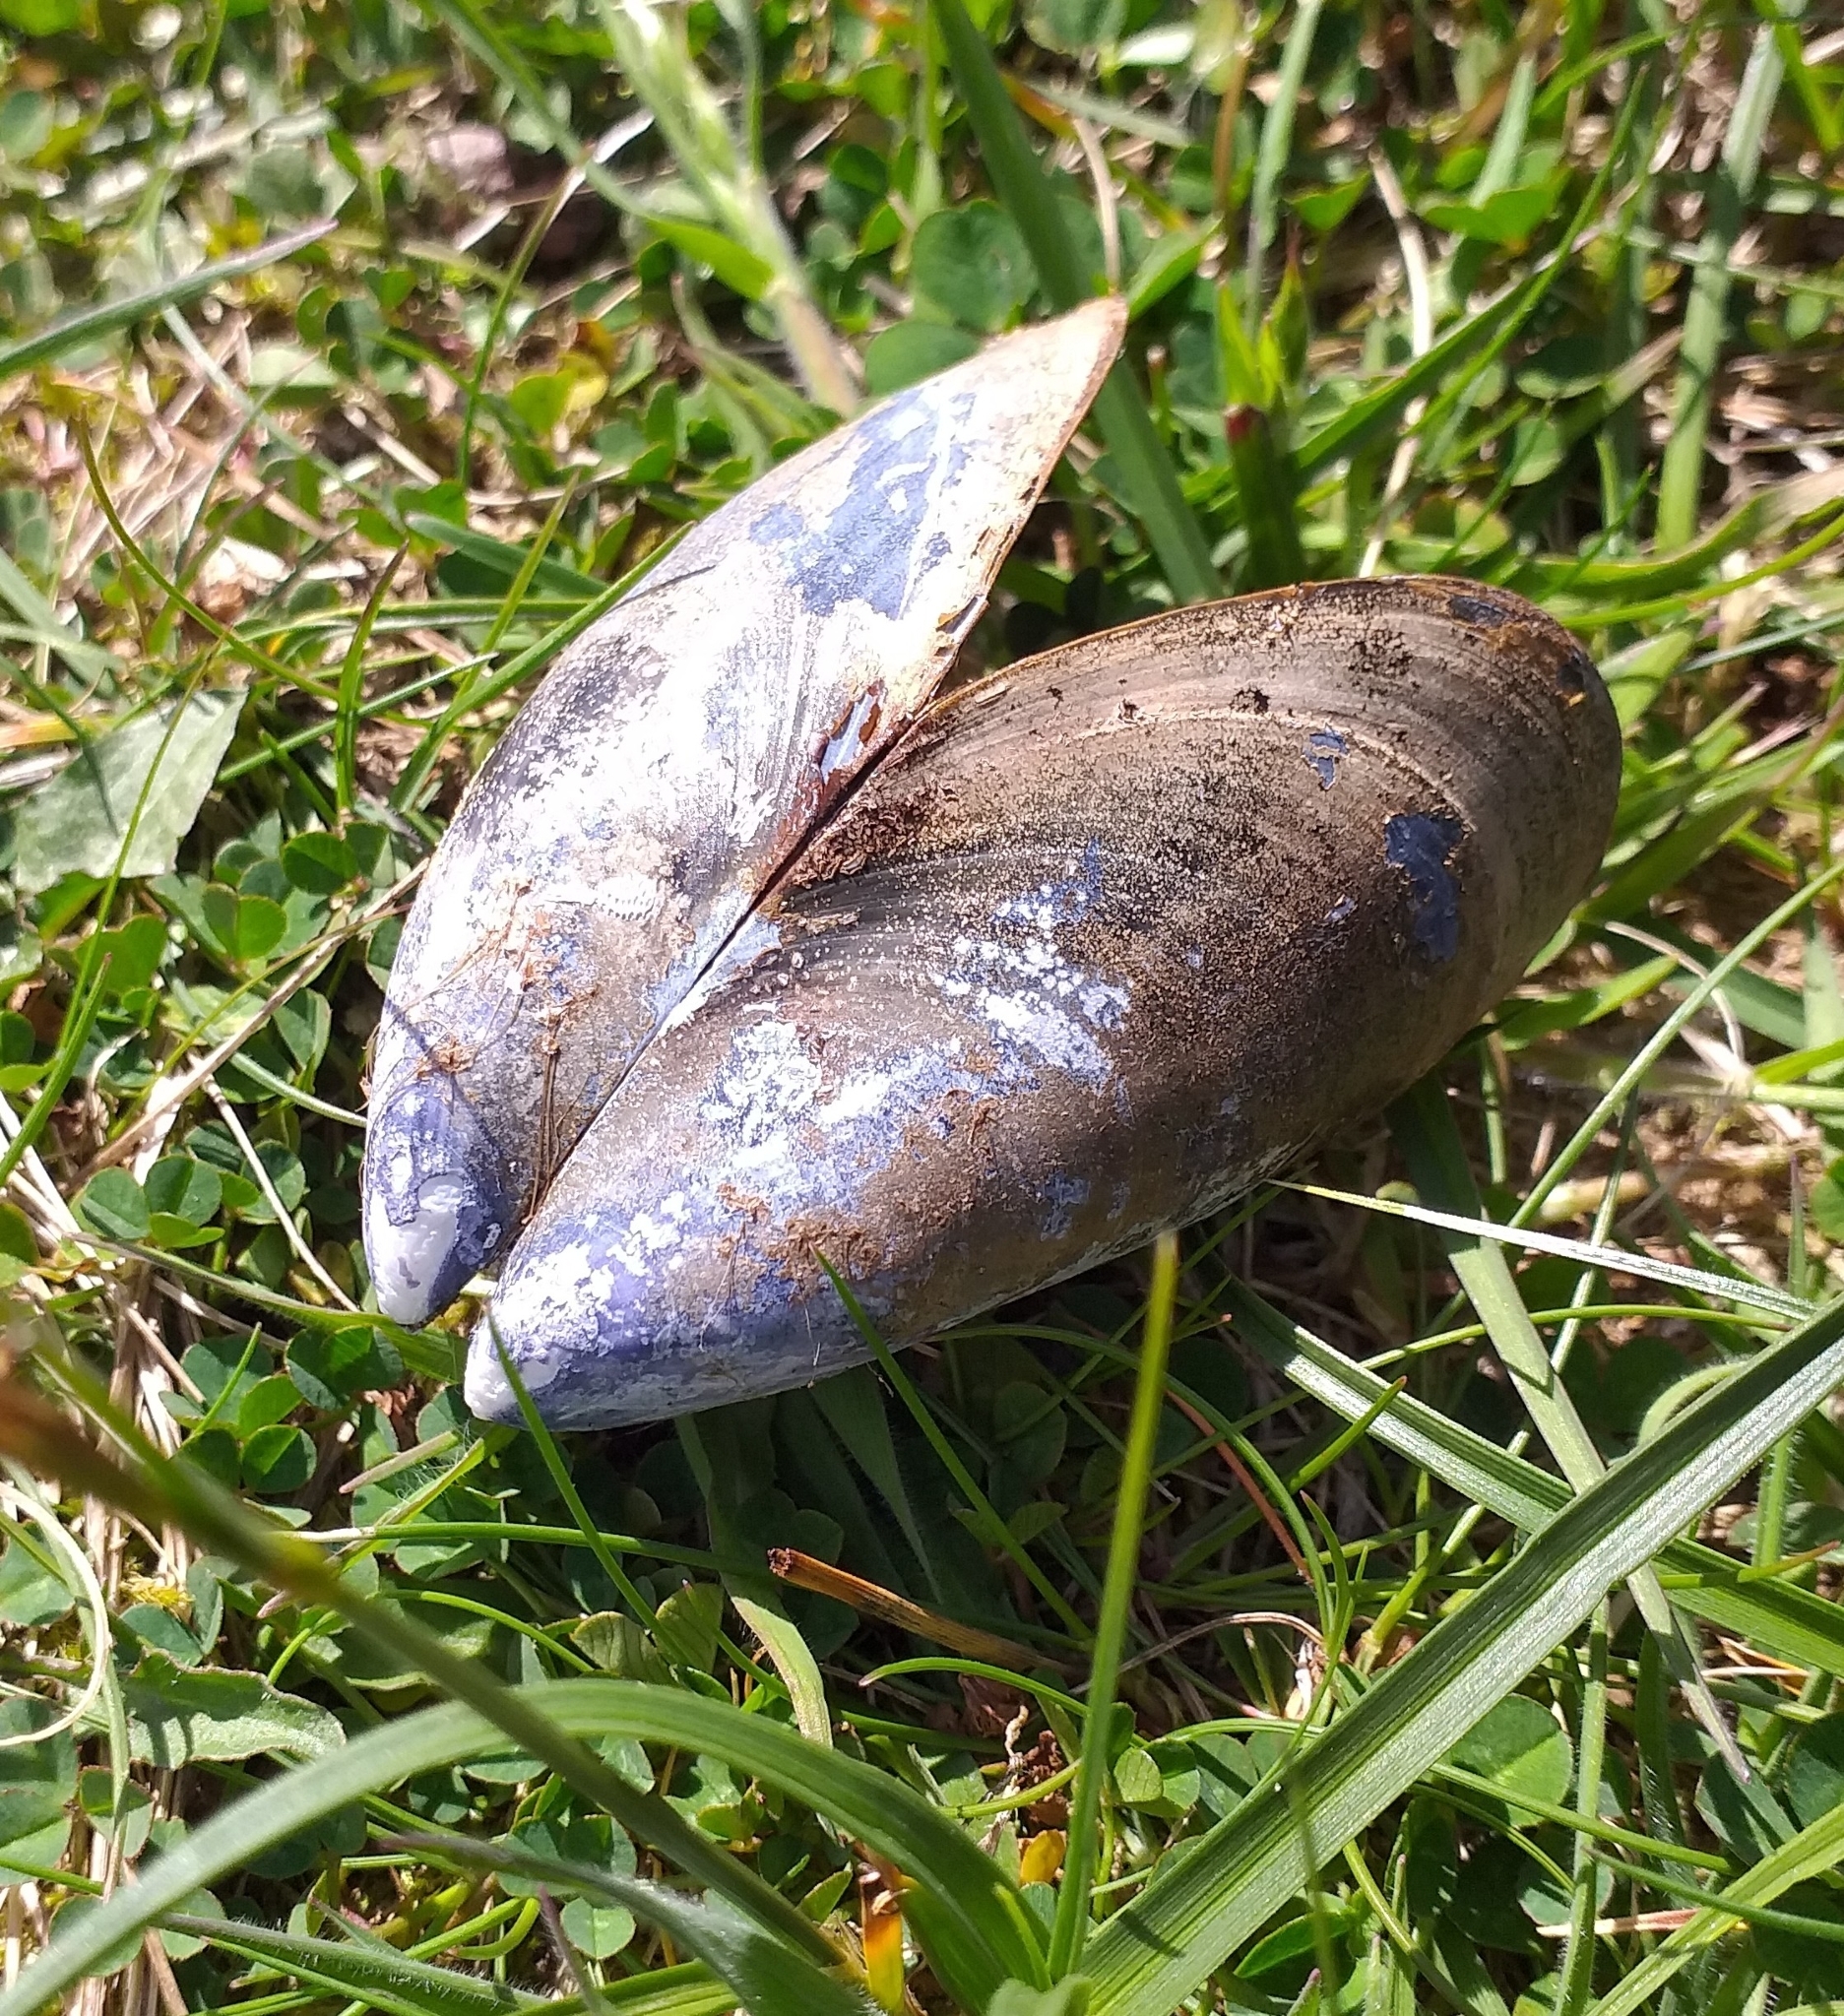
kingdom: Animalia
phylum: Mollusca
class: Bivalvia
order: Mytilida
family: Mytilidae
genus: Mytilus
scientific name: Mytilus edulis
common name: Blue mussel
